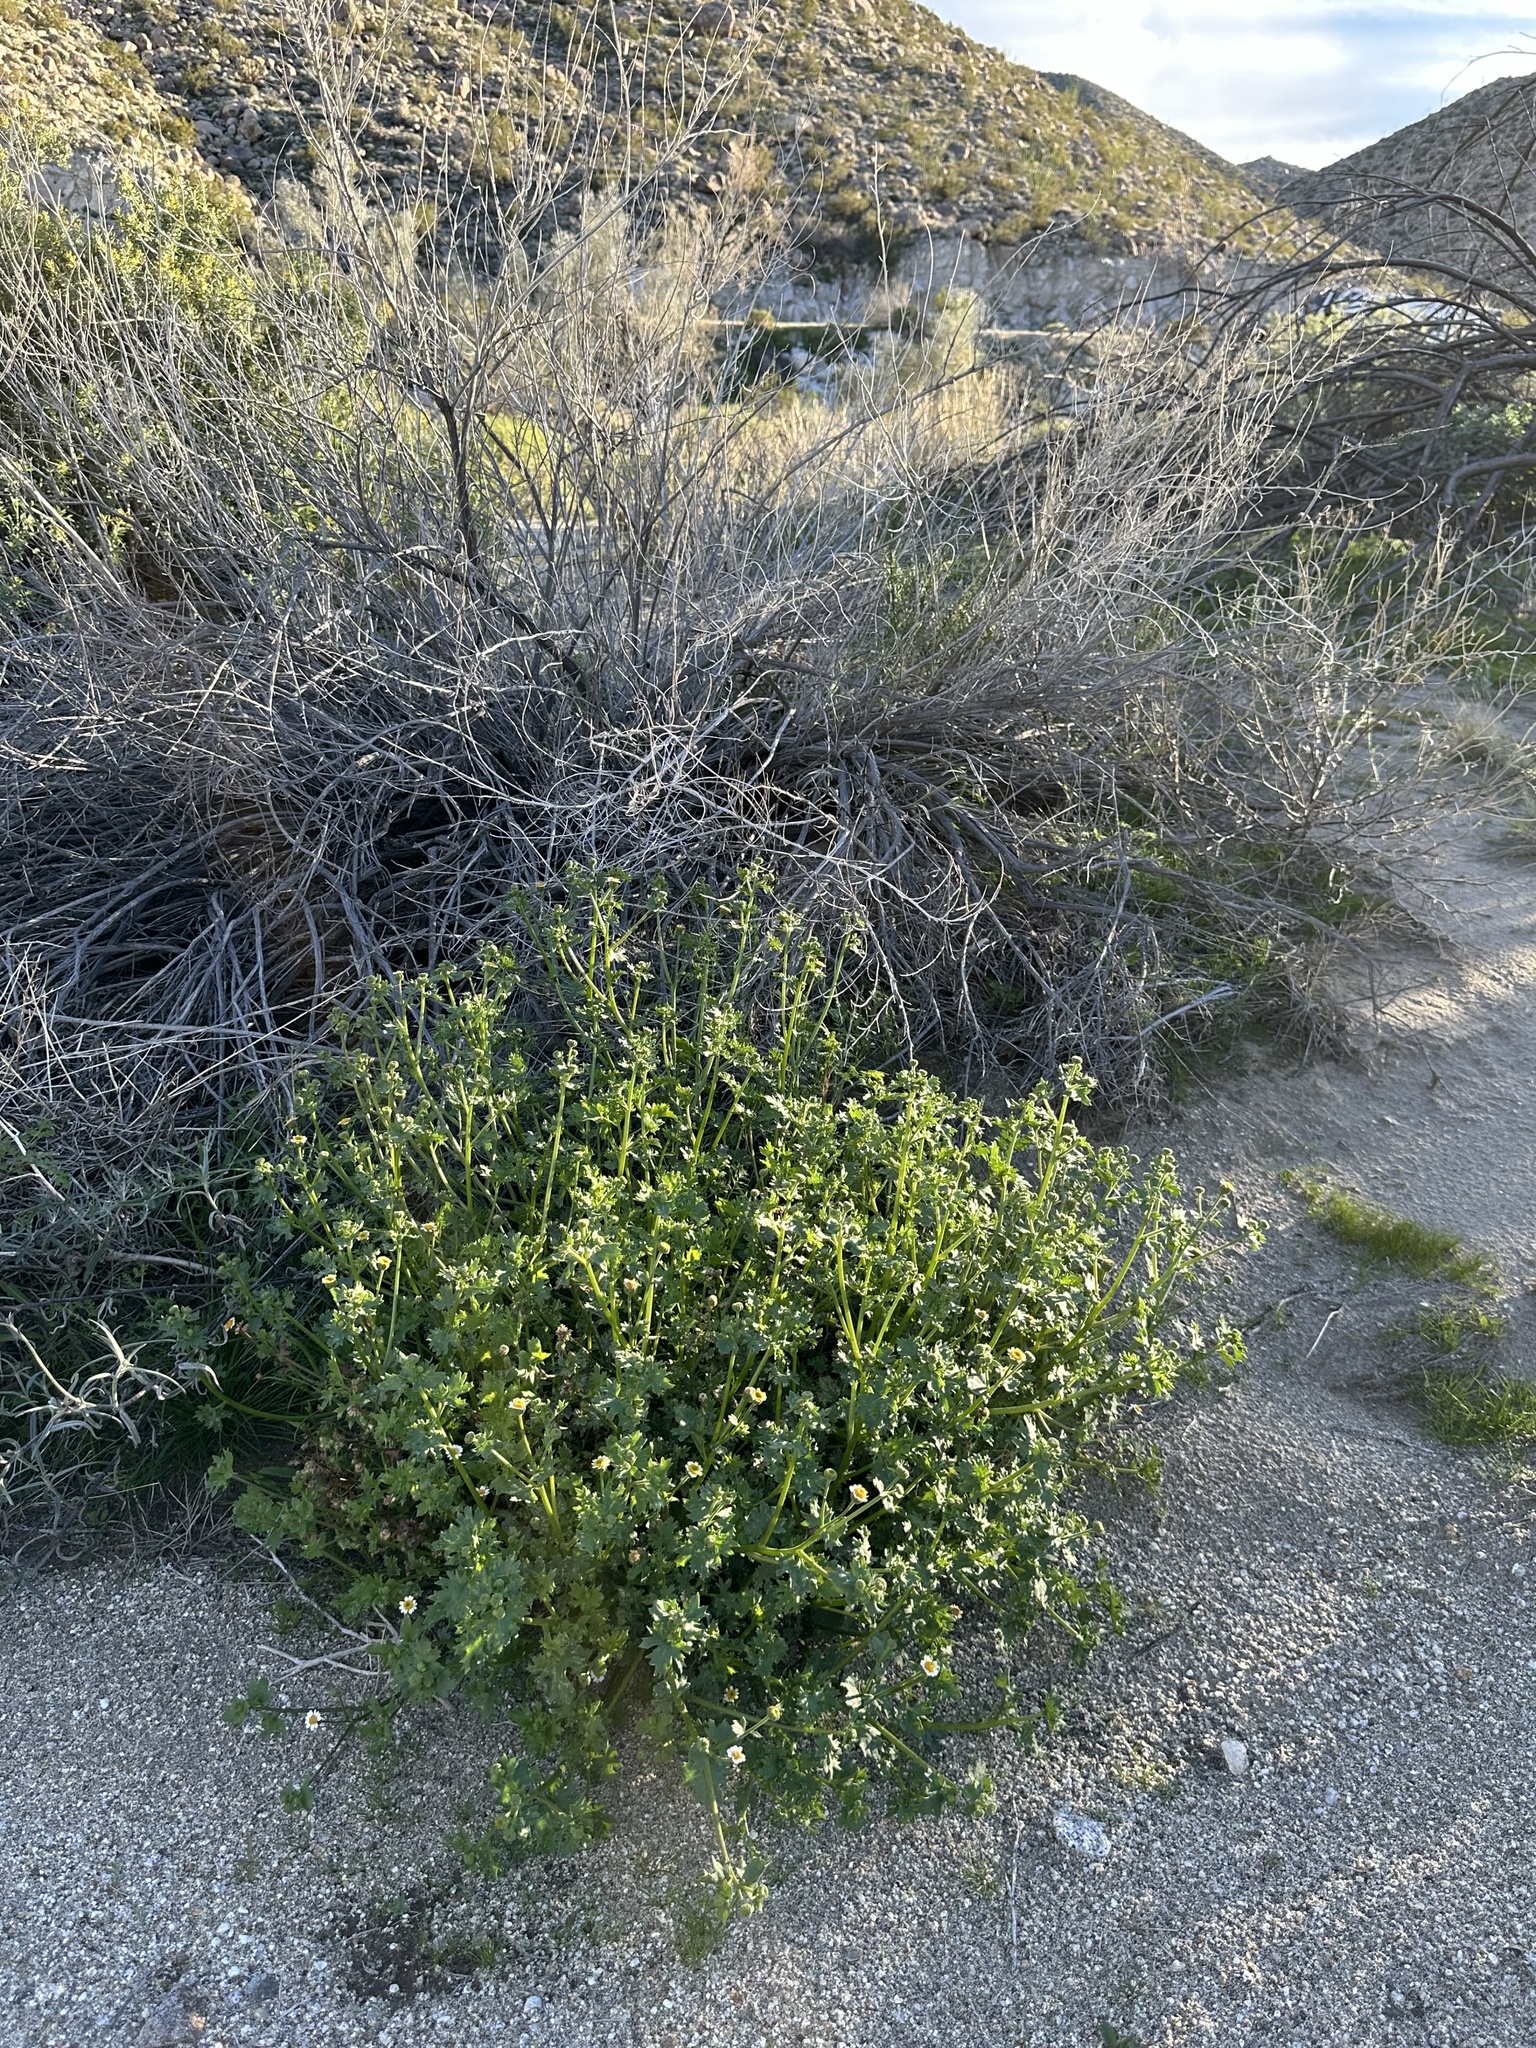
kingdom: Plantae
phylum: Tracheophyta
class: Magnoliopsida
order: Asterales
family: Asteraceae
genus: Laphamia
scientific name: Laphamia emoryi
